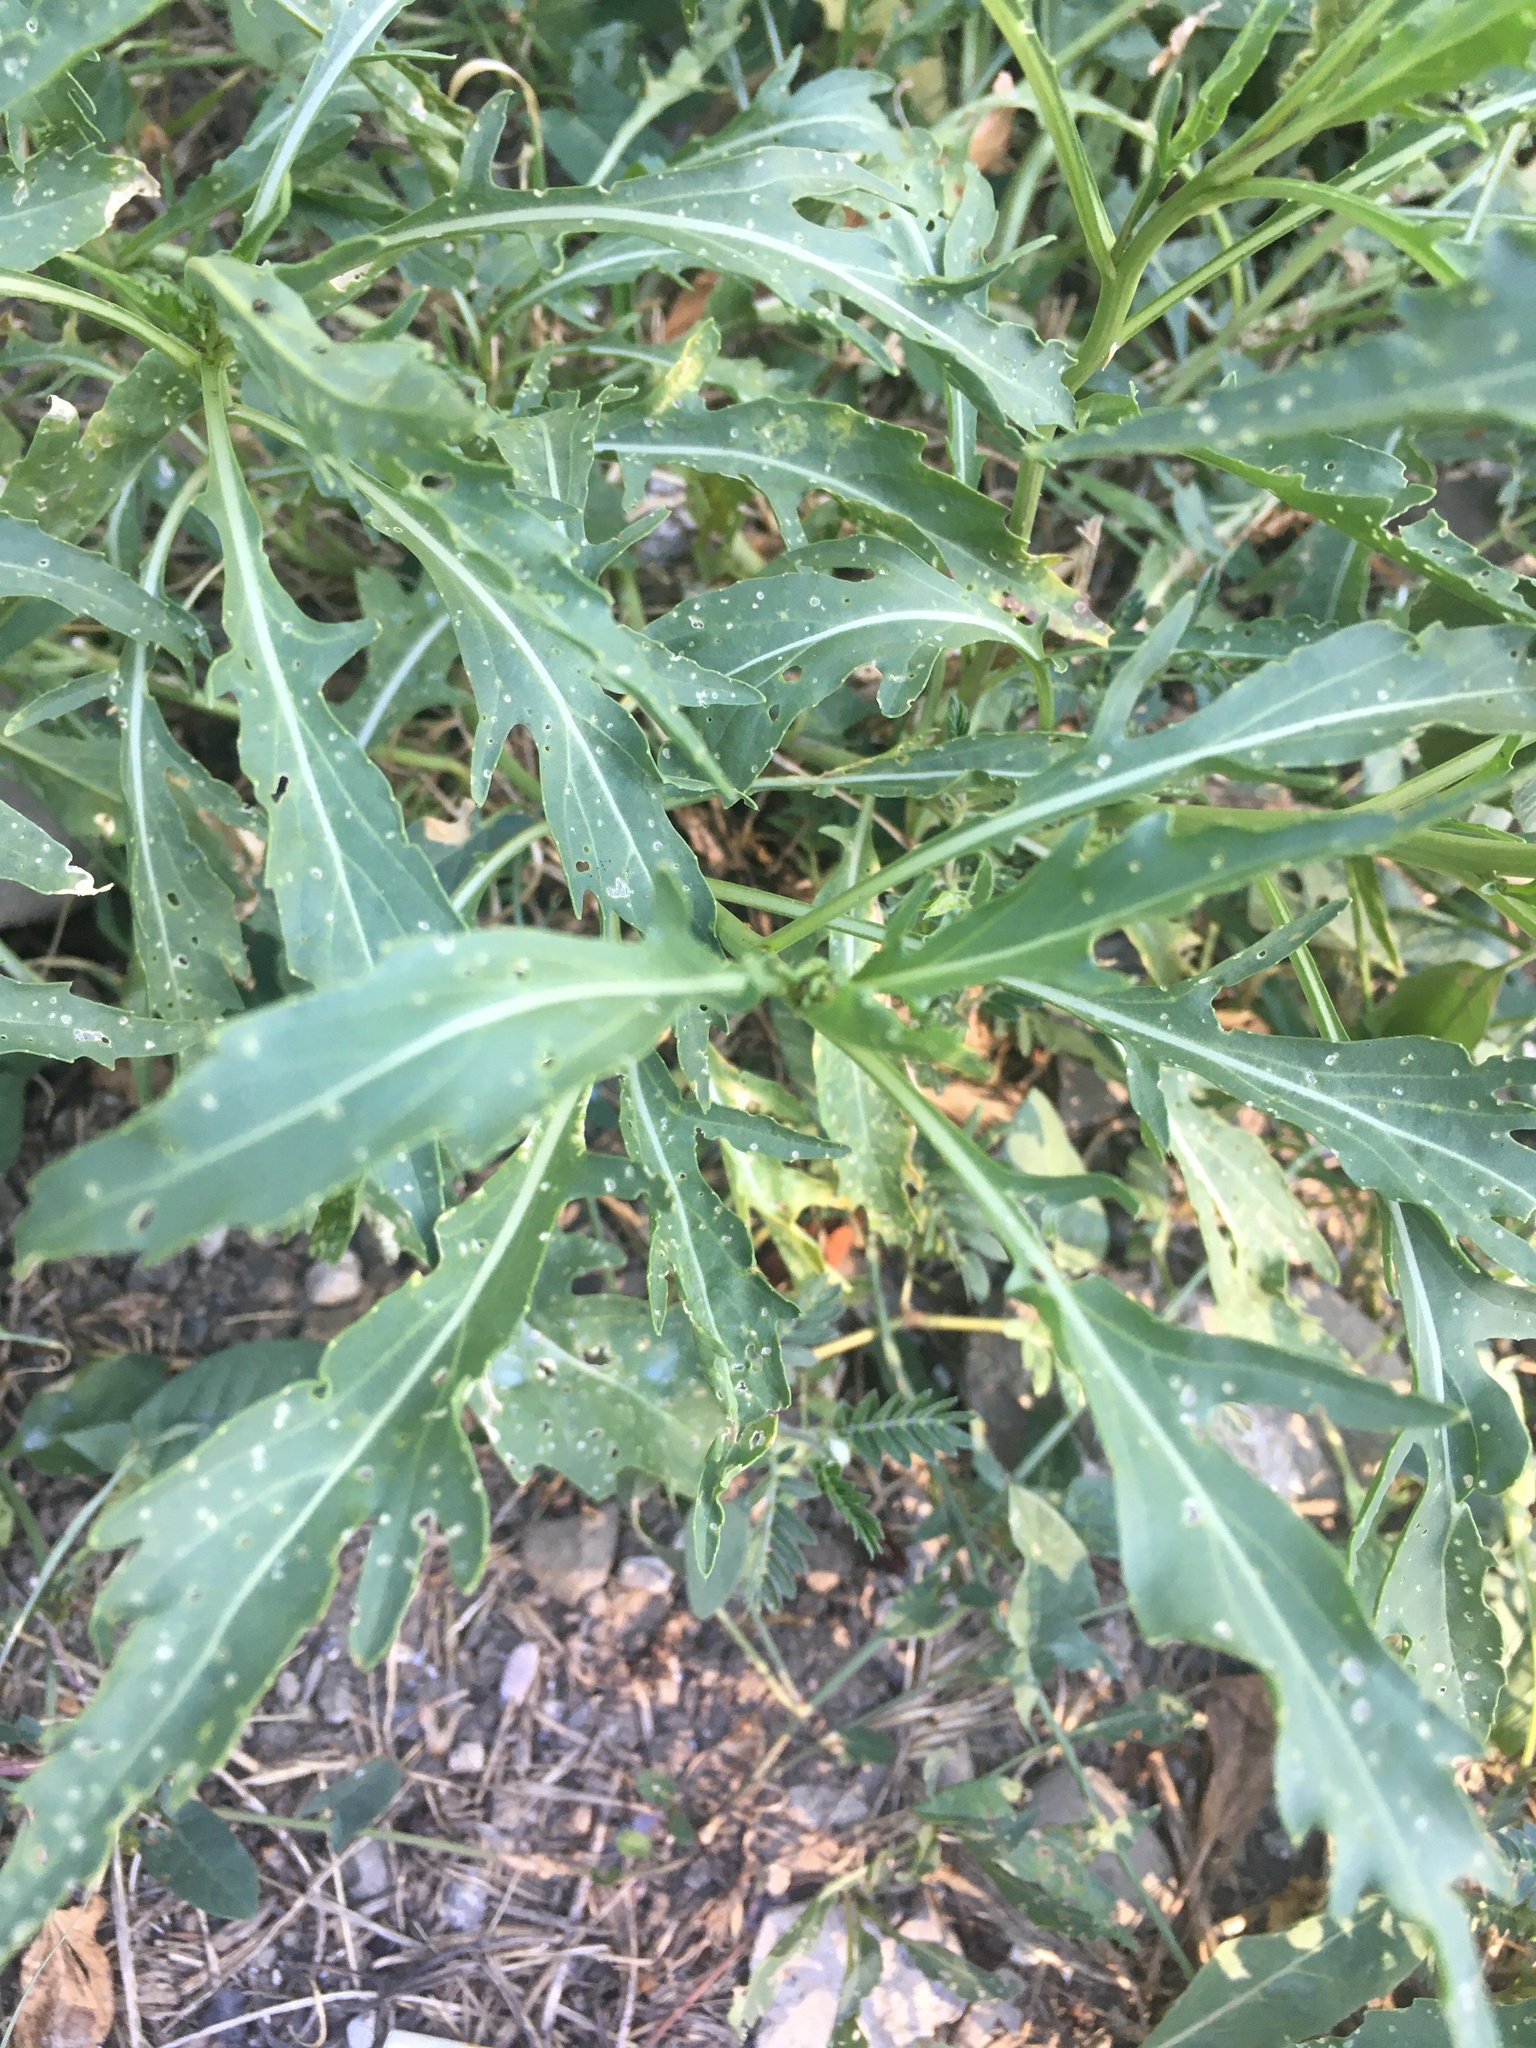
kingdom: Plantae
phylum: Tracheophyta
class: Magnoliopsida
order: Brassicales
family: Brassicaceae
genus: Diplotaxis
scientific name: Diplotaxis tenuifolia
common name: Perennial wall-rocket
